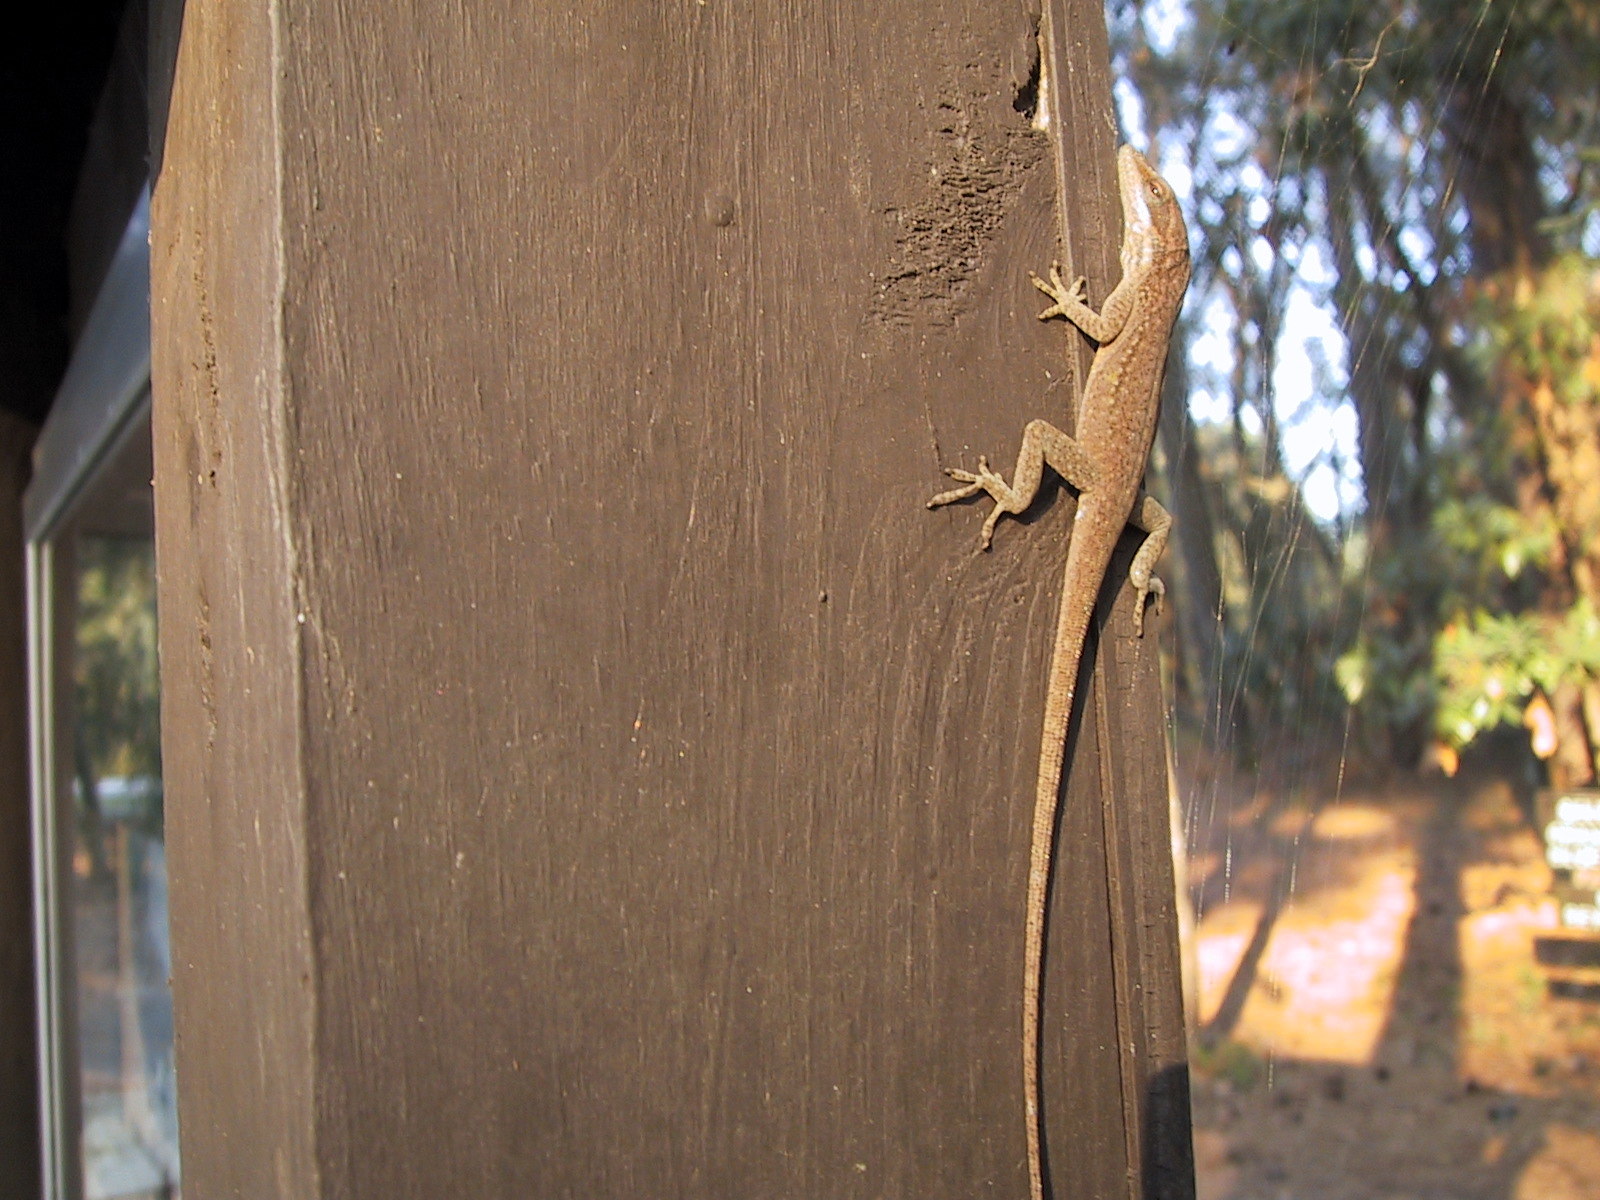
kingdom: Animalia
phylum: Chordata
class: Squamata
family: Dactyloidae
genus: Anolis
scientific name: Anolis carolinensis
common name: Green anole
